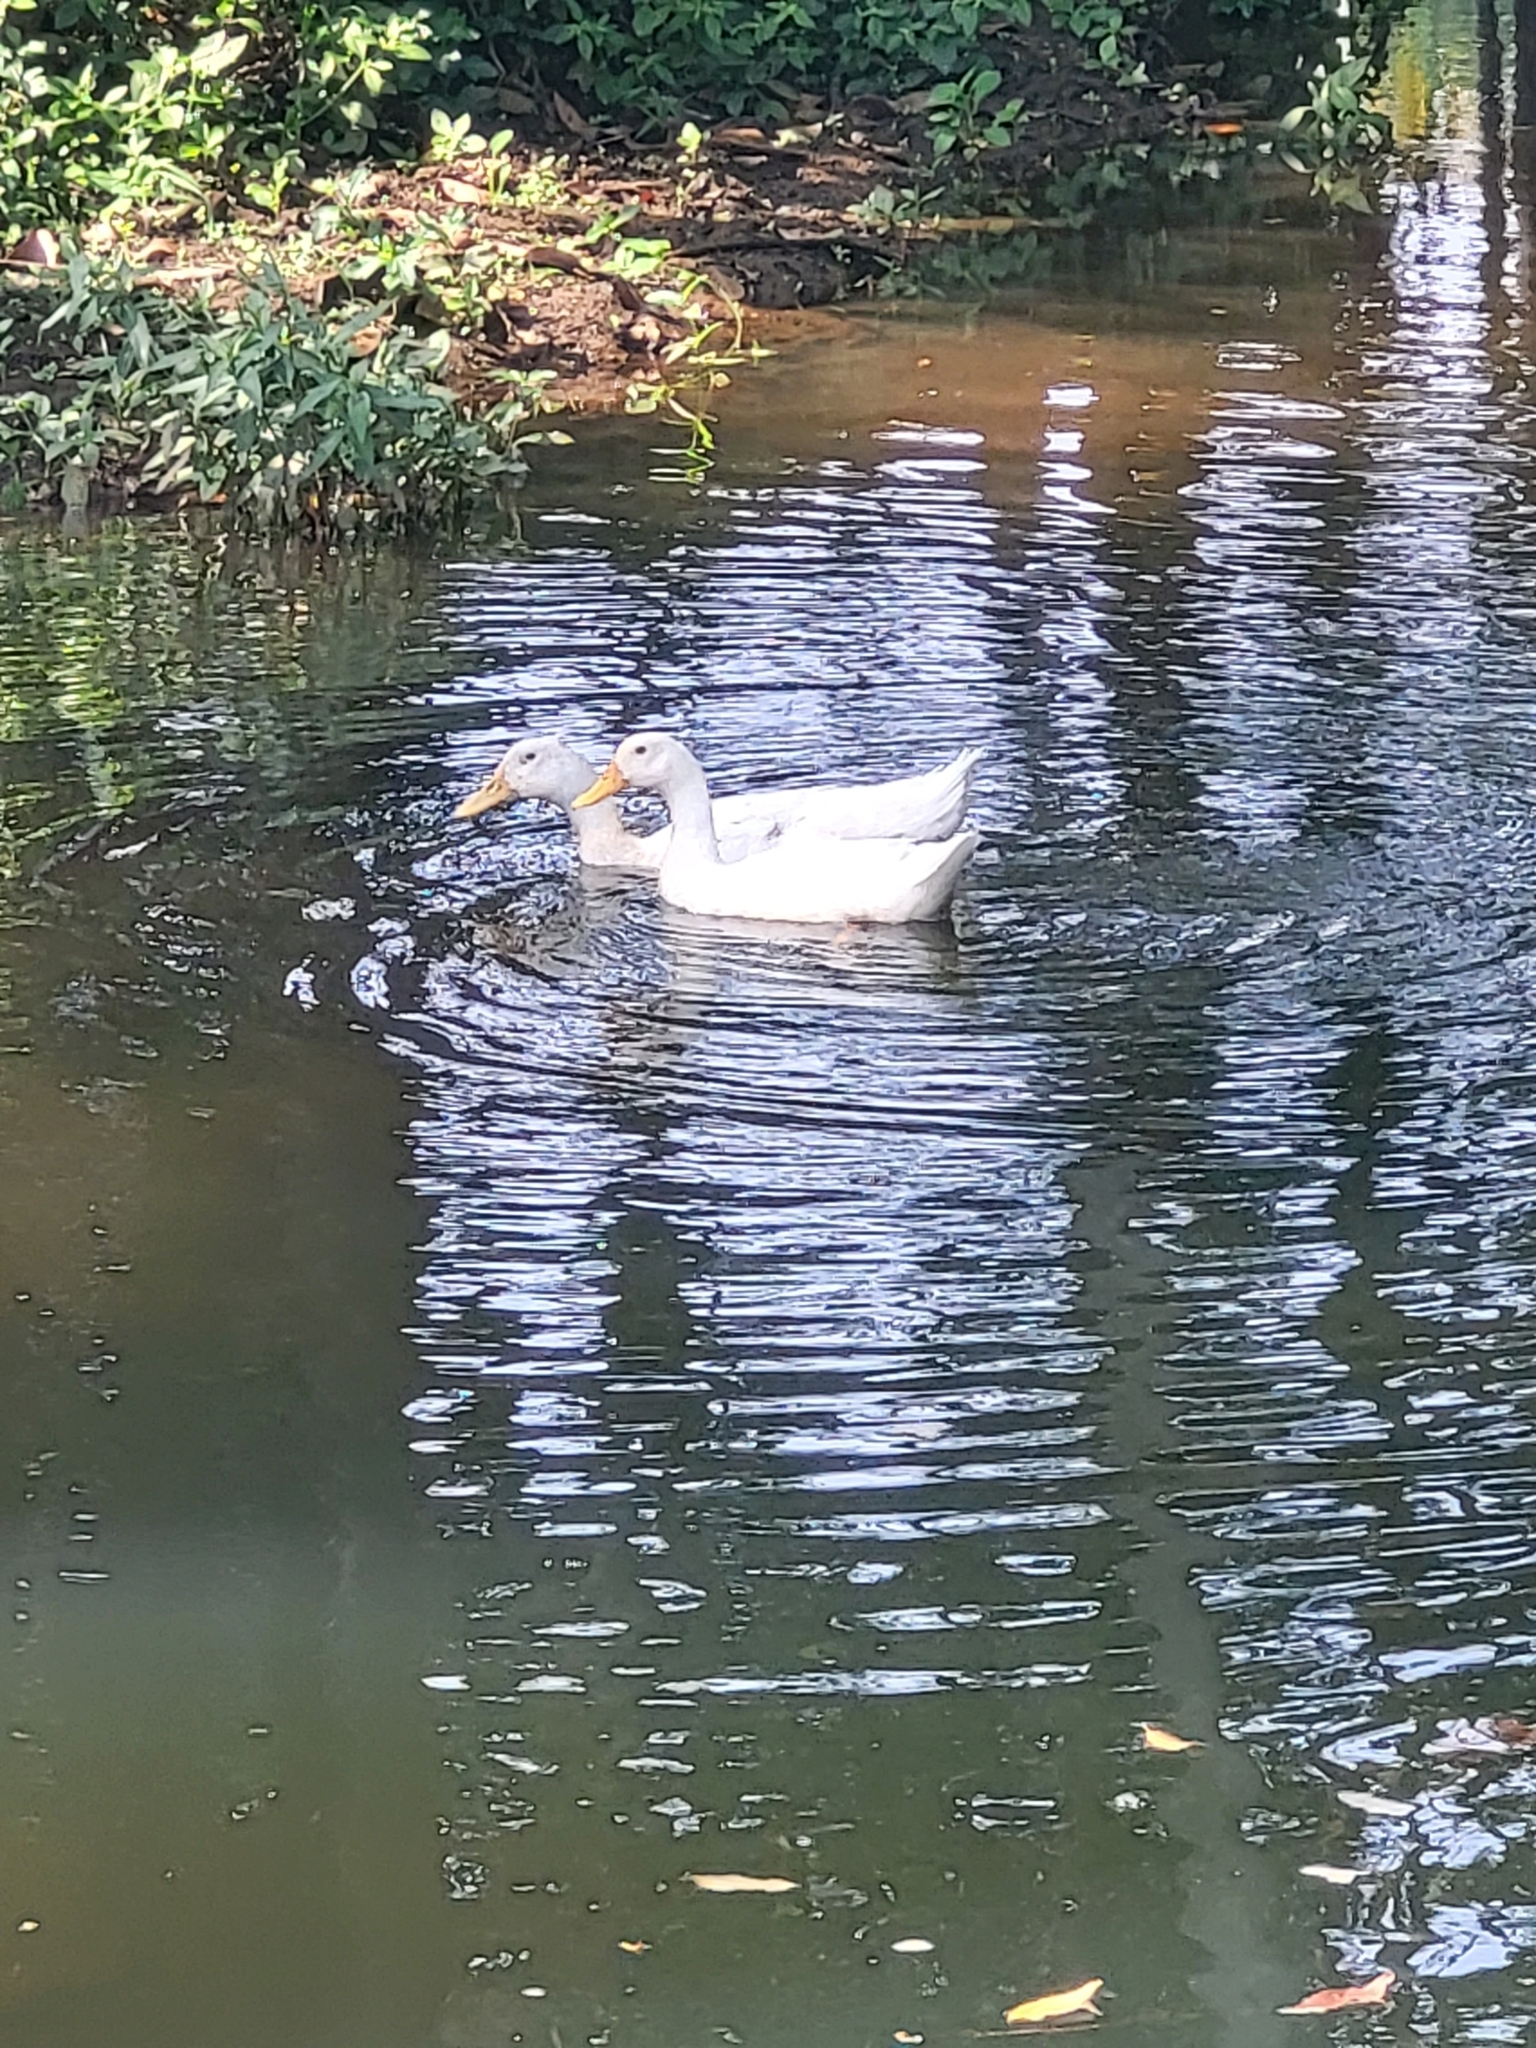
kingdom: Animalia
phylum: Chordata
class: Aves
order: Anseriformes
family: Anatidae
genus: Anas
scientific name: Anas platyrhynchos
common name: Mallard
